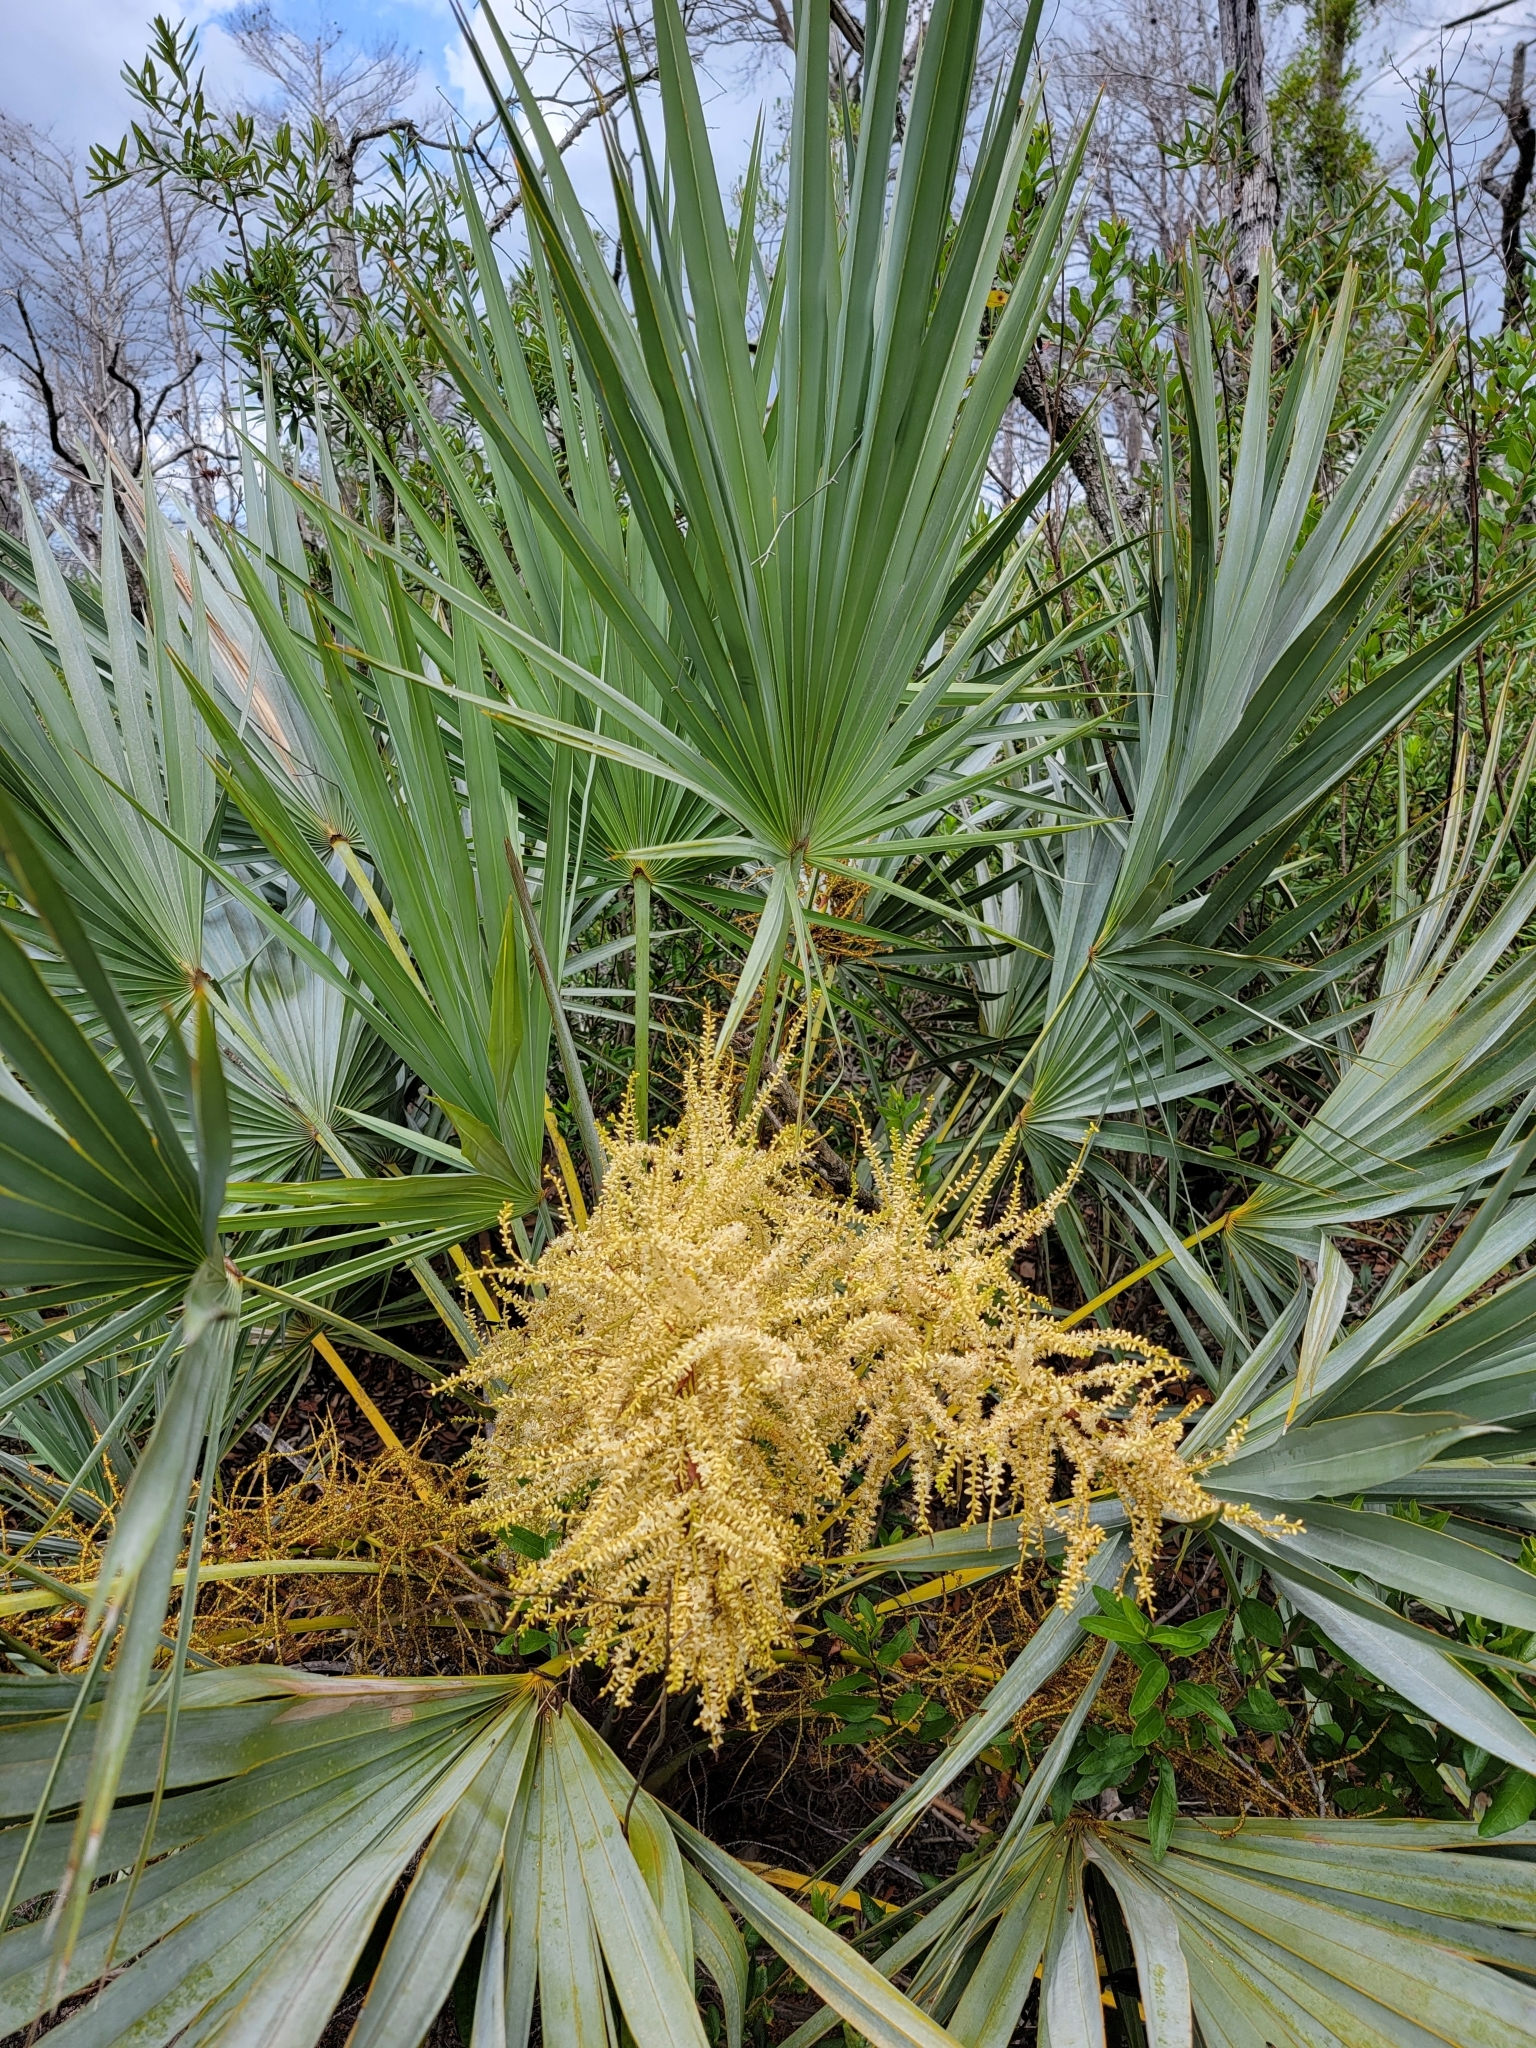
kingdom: Plantae
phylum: Tracheophyta
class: Liliopsida
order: Arecales
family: Arecaceae
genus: Serenoa
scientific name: Serenoa repens
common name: Saw-palmetto
